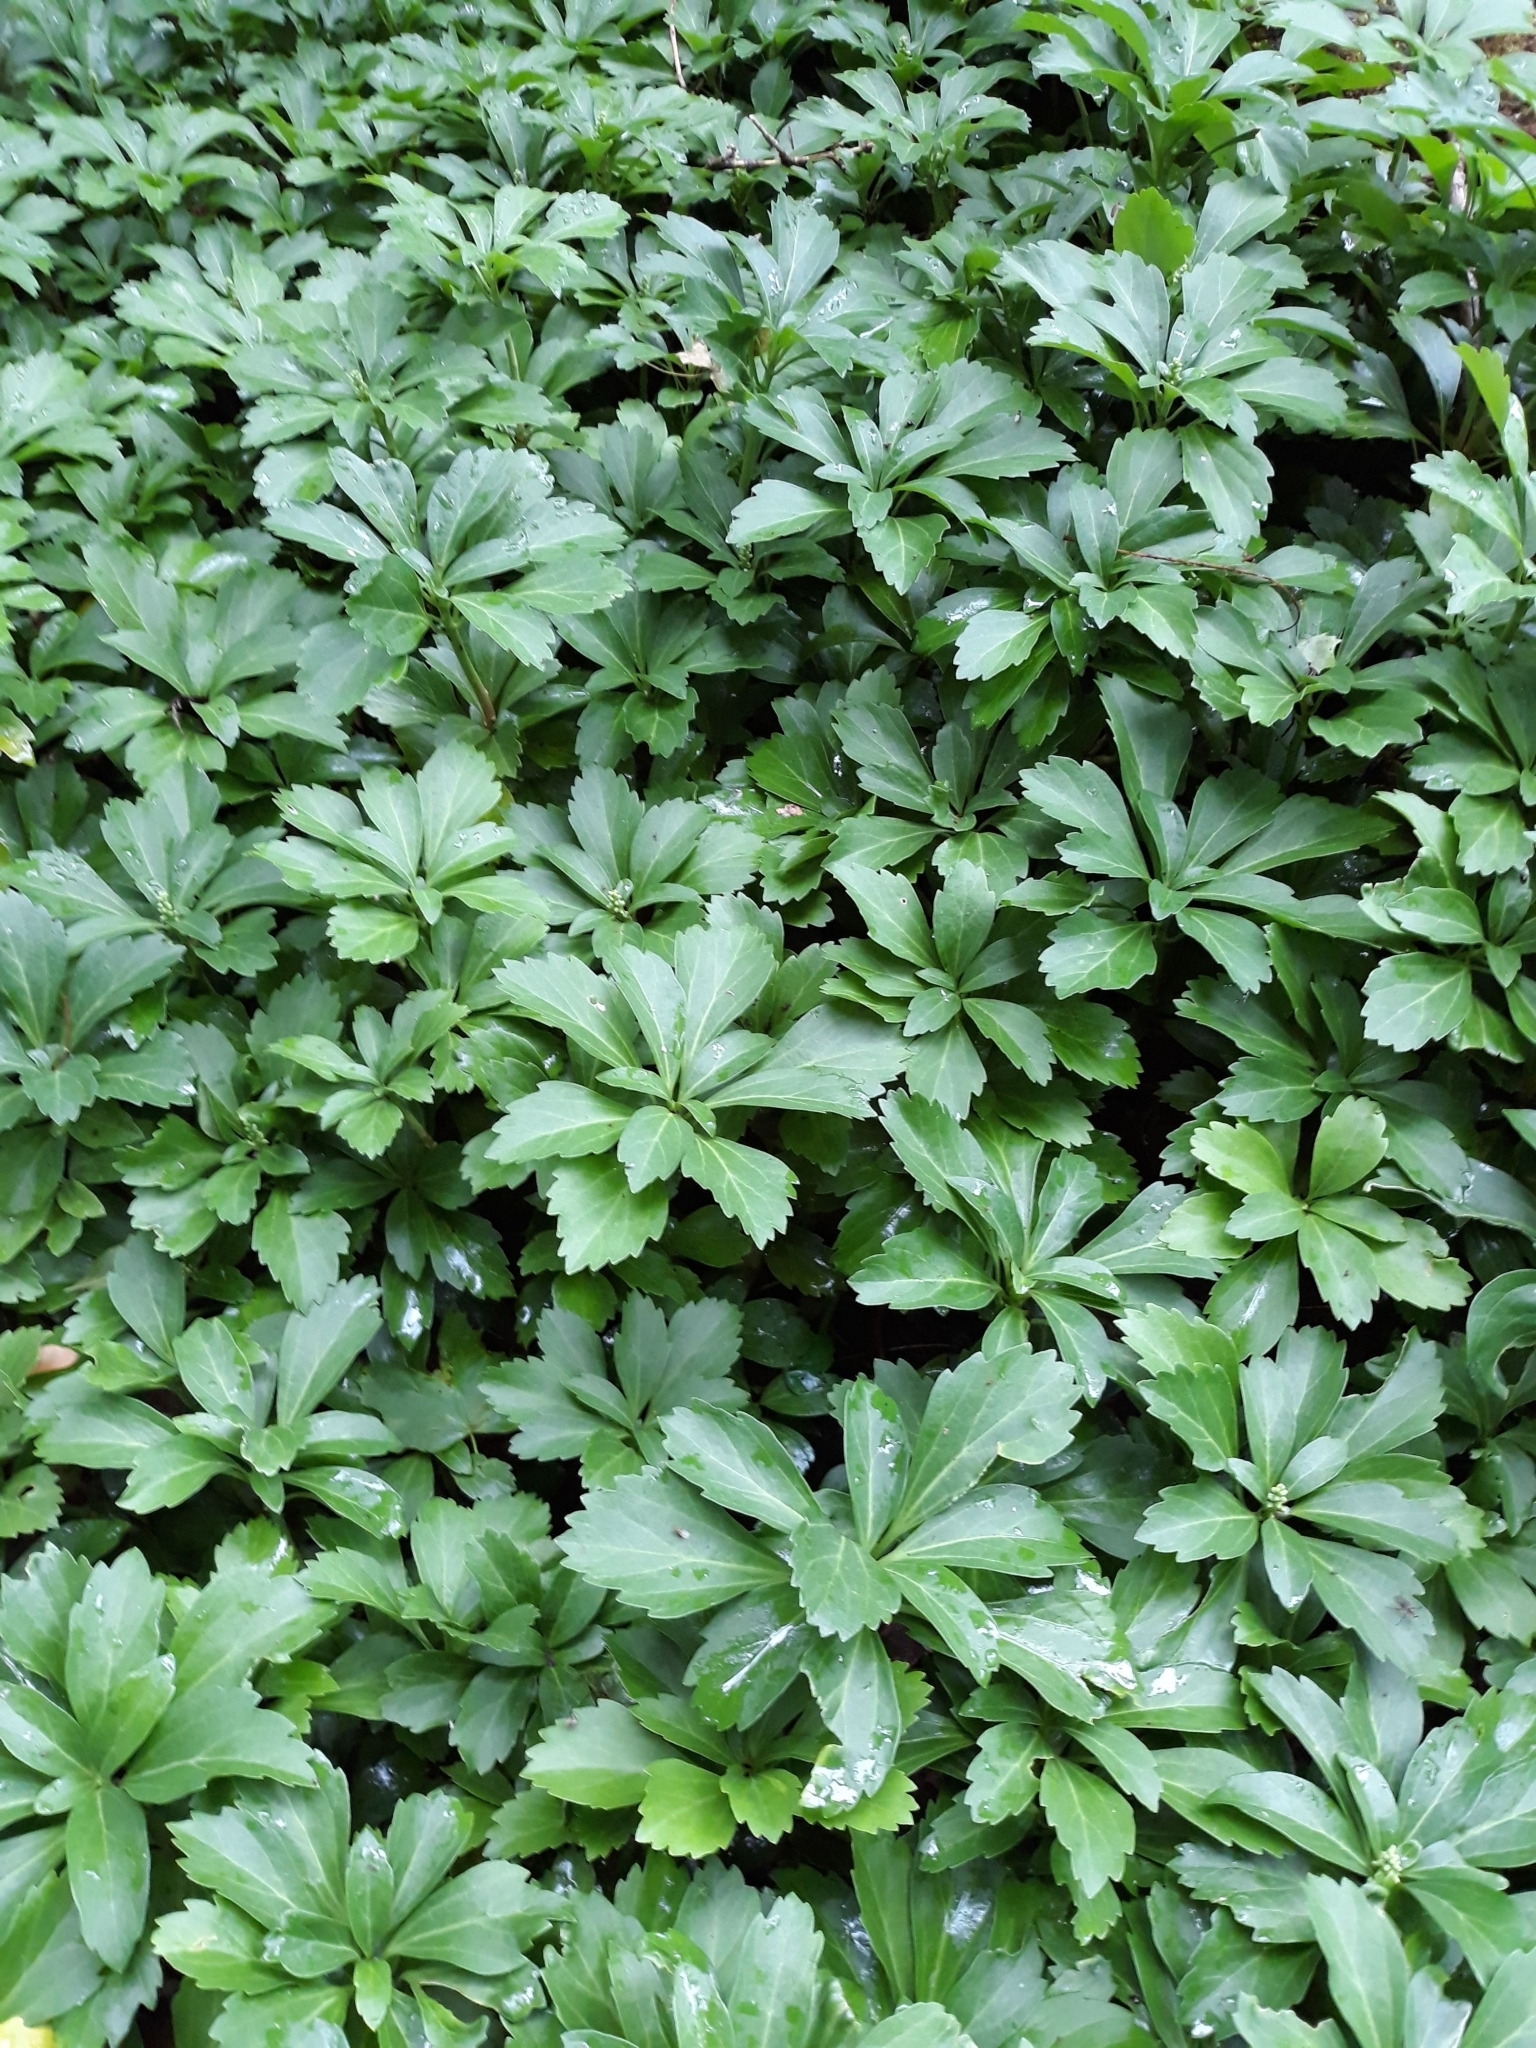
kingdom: Plantae
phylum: Tracheophyta
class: Magnoliopsida
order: Buxales
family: Buxaceae
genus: Pachysandra
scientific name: Pachysandra terminalis
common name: Japanese pachysandra
